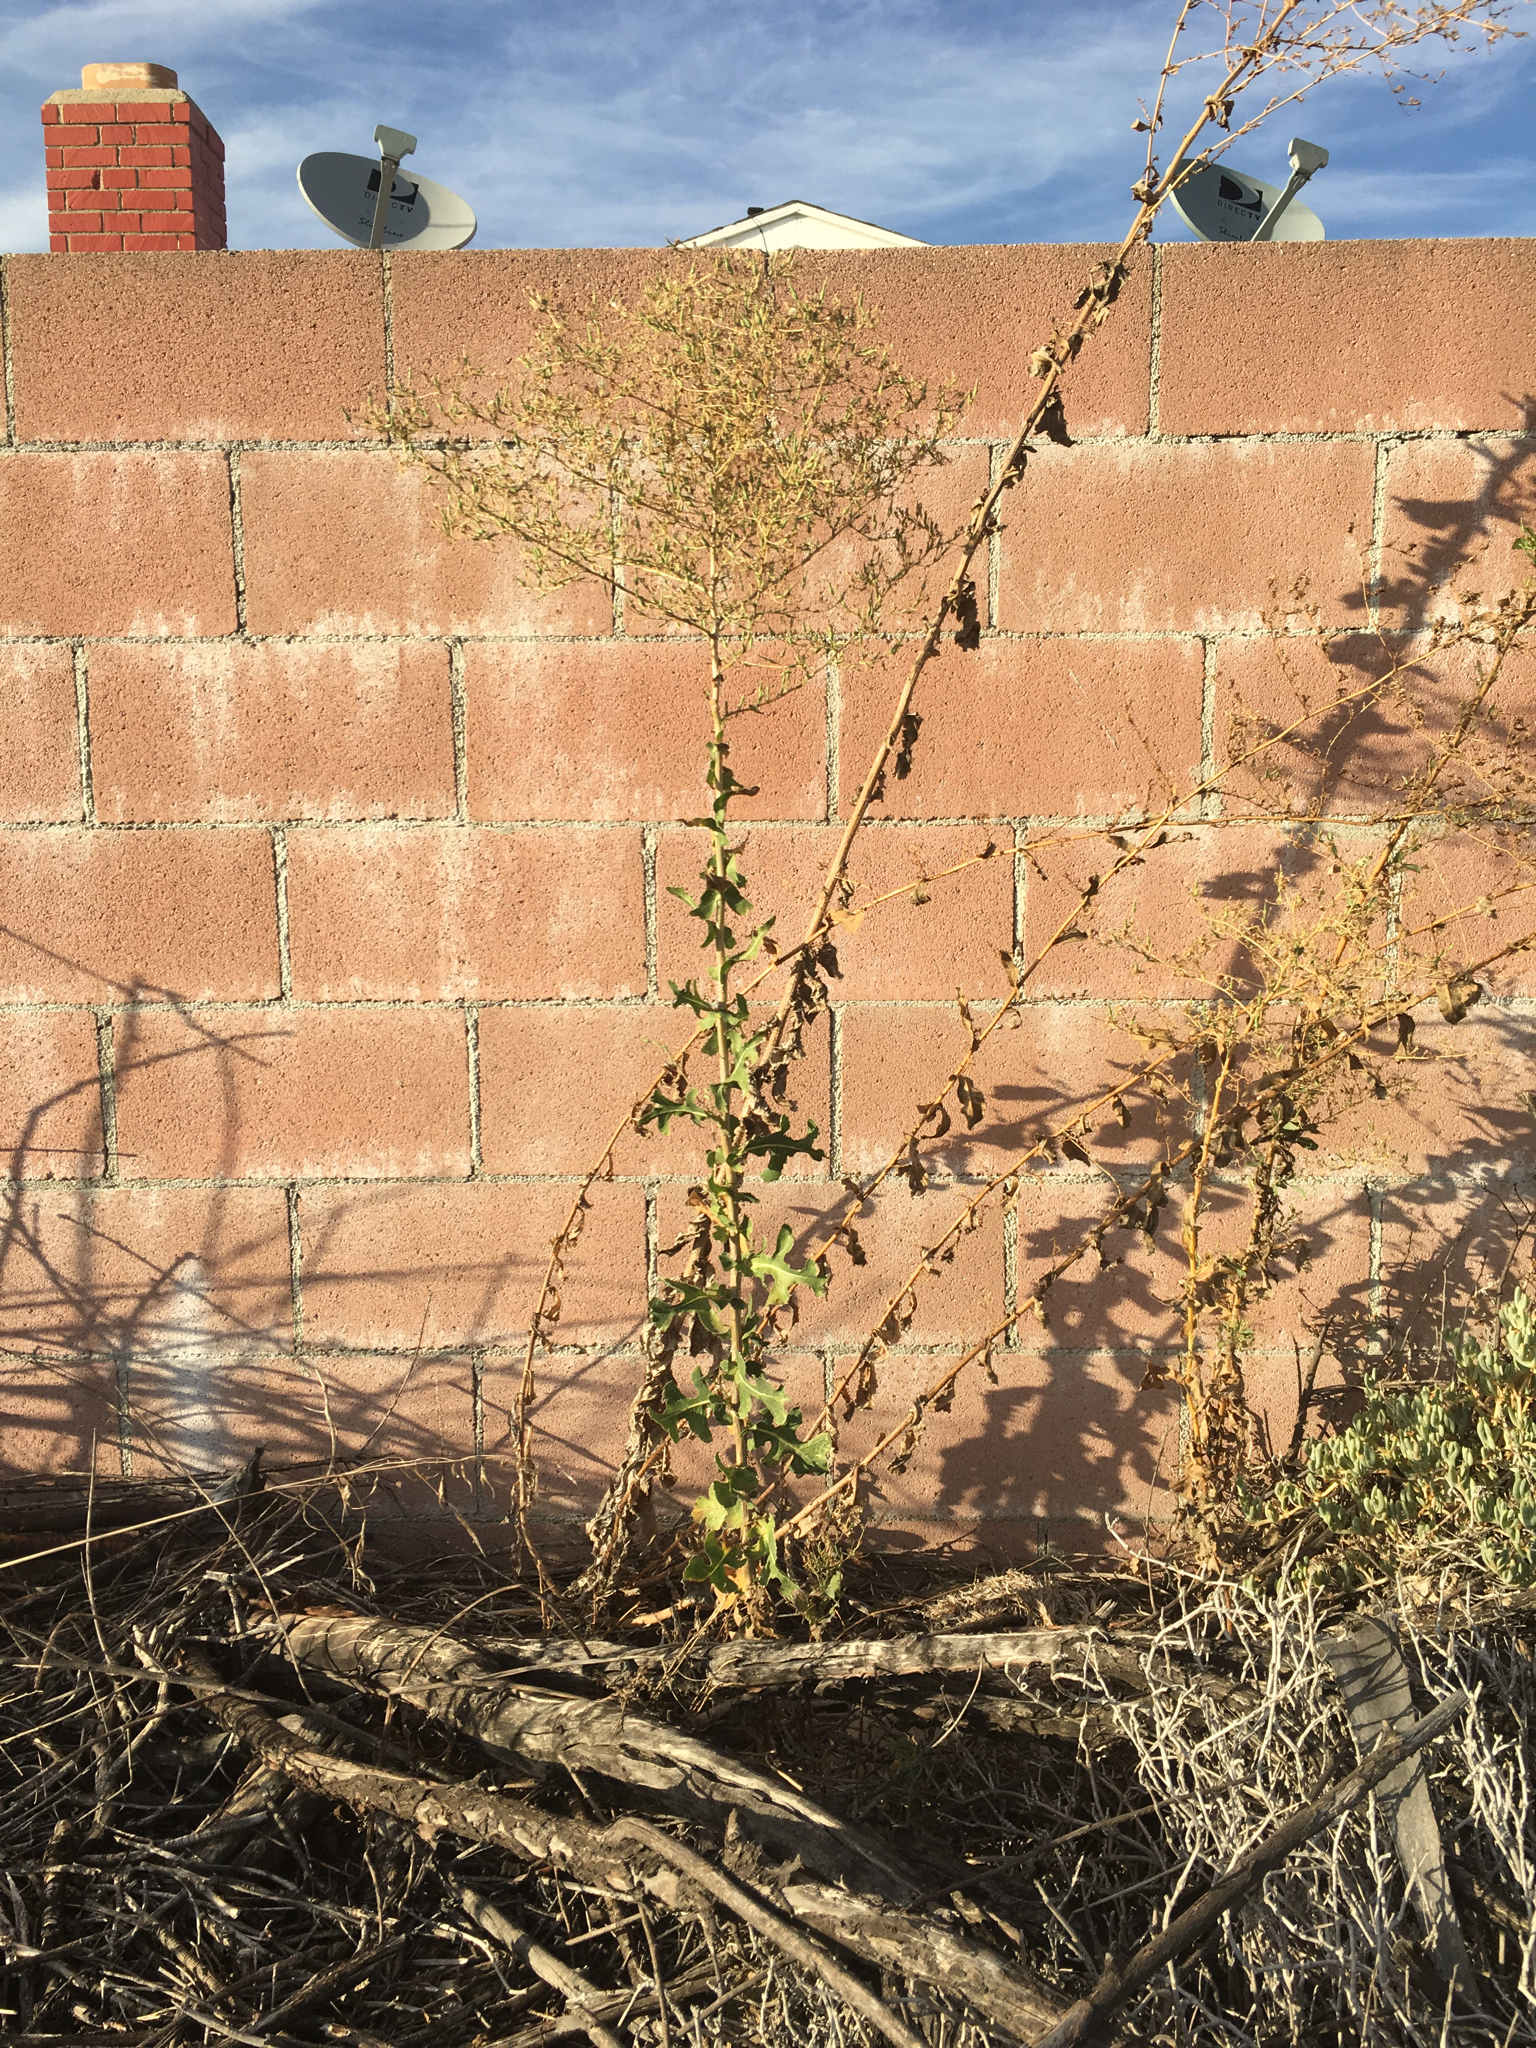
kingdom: Plantae
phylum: Tracheophyta
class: Magnoliopsida
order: Asterales
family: Asteraceae
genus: Lactuca
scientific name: Lactuca serriola
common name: Prickly lettuce
